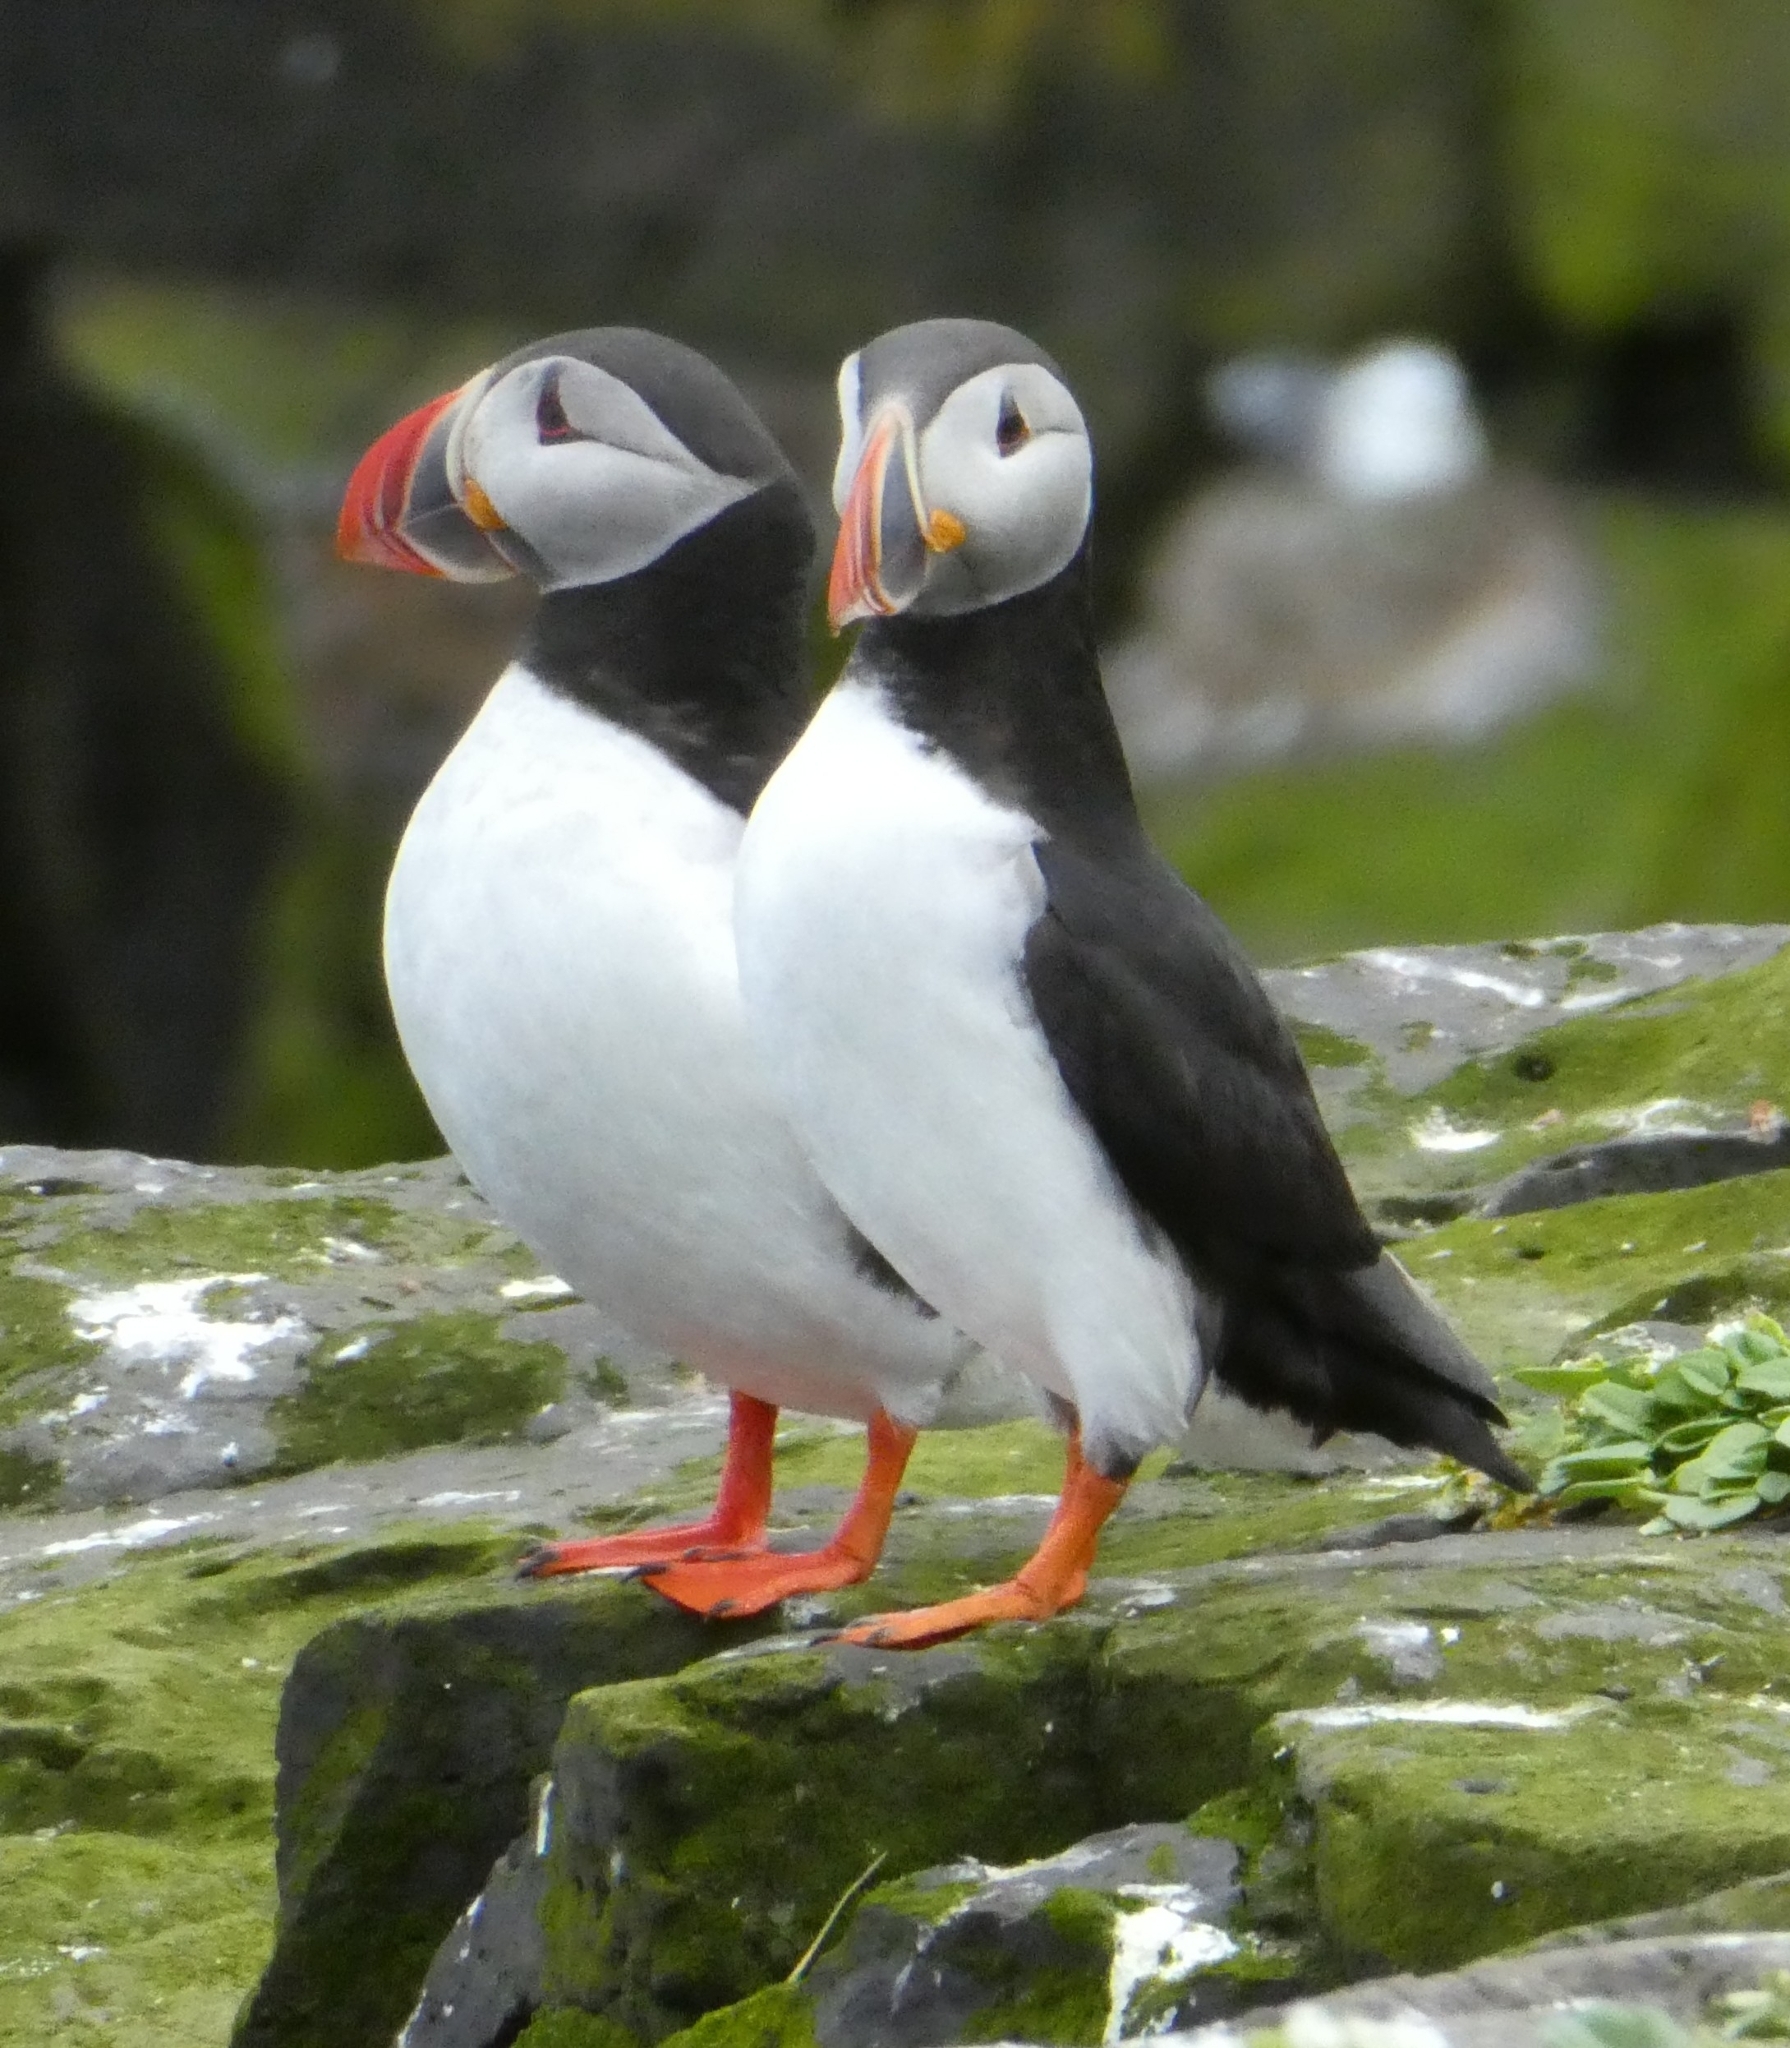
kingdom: Animalia
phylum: Chordata
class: Aves
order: Charadriiformes
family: Alcidae
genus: Fratercula
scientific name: Fratercula arctica
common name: Atlantic puffin
